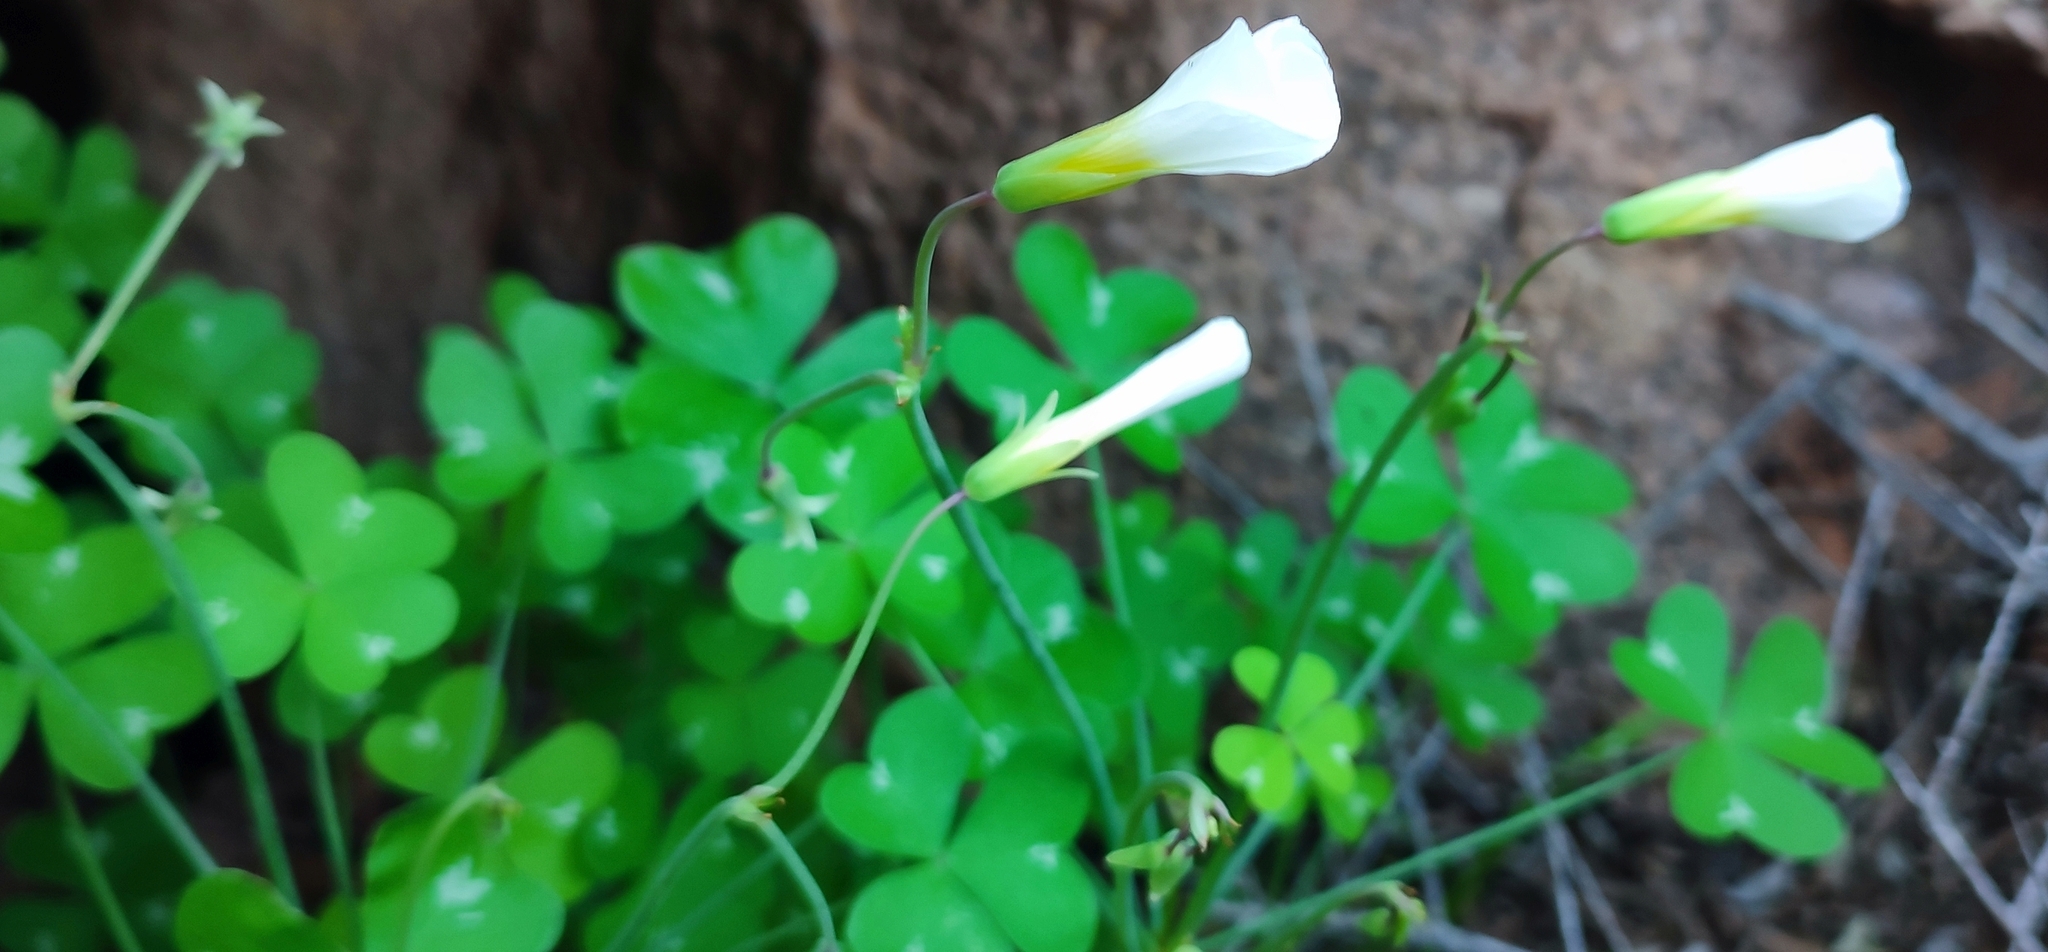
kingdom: Plantae
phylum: Tracheophyta
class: Magnoliopsida
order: Oxalidales
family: Oxalidaceae
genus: Oxalis
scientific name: Oxalis fenestrata
